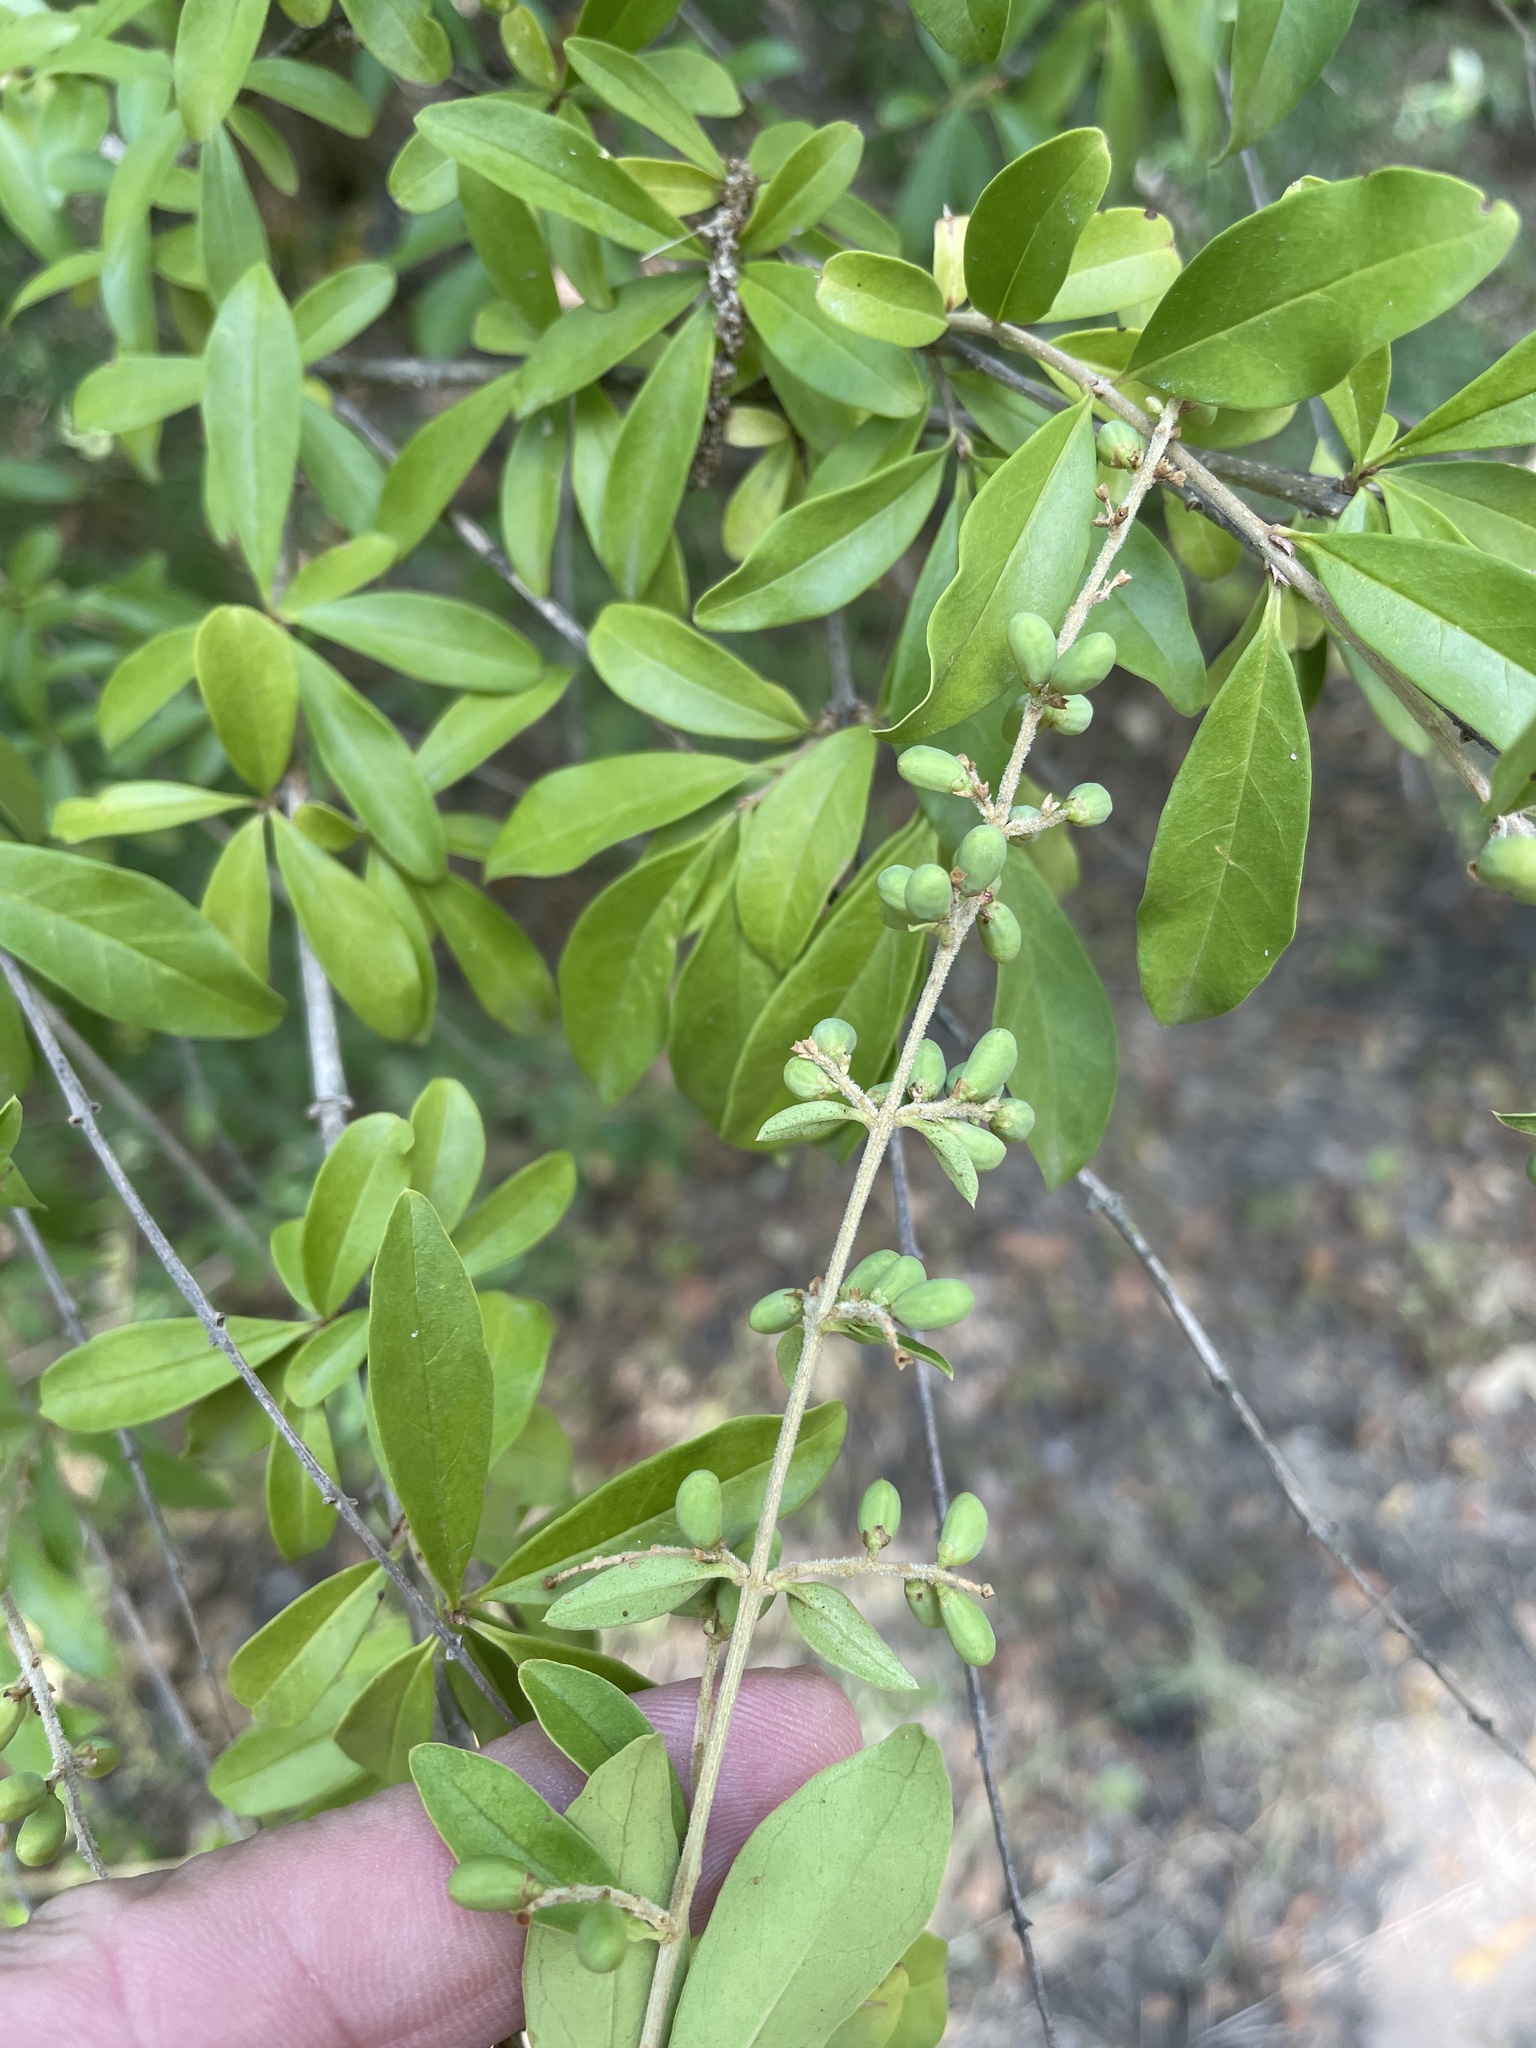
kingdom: Plantae
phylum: Tracheophyta
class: Magnoliopsida
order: Lamiales
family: Oleaceae
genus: Ligustrum
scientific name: Ligustrum quihoui
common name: Waxyleaf privet
